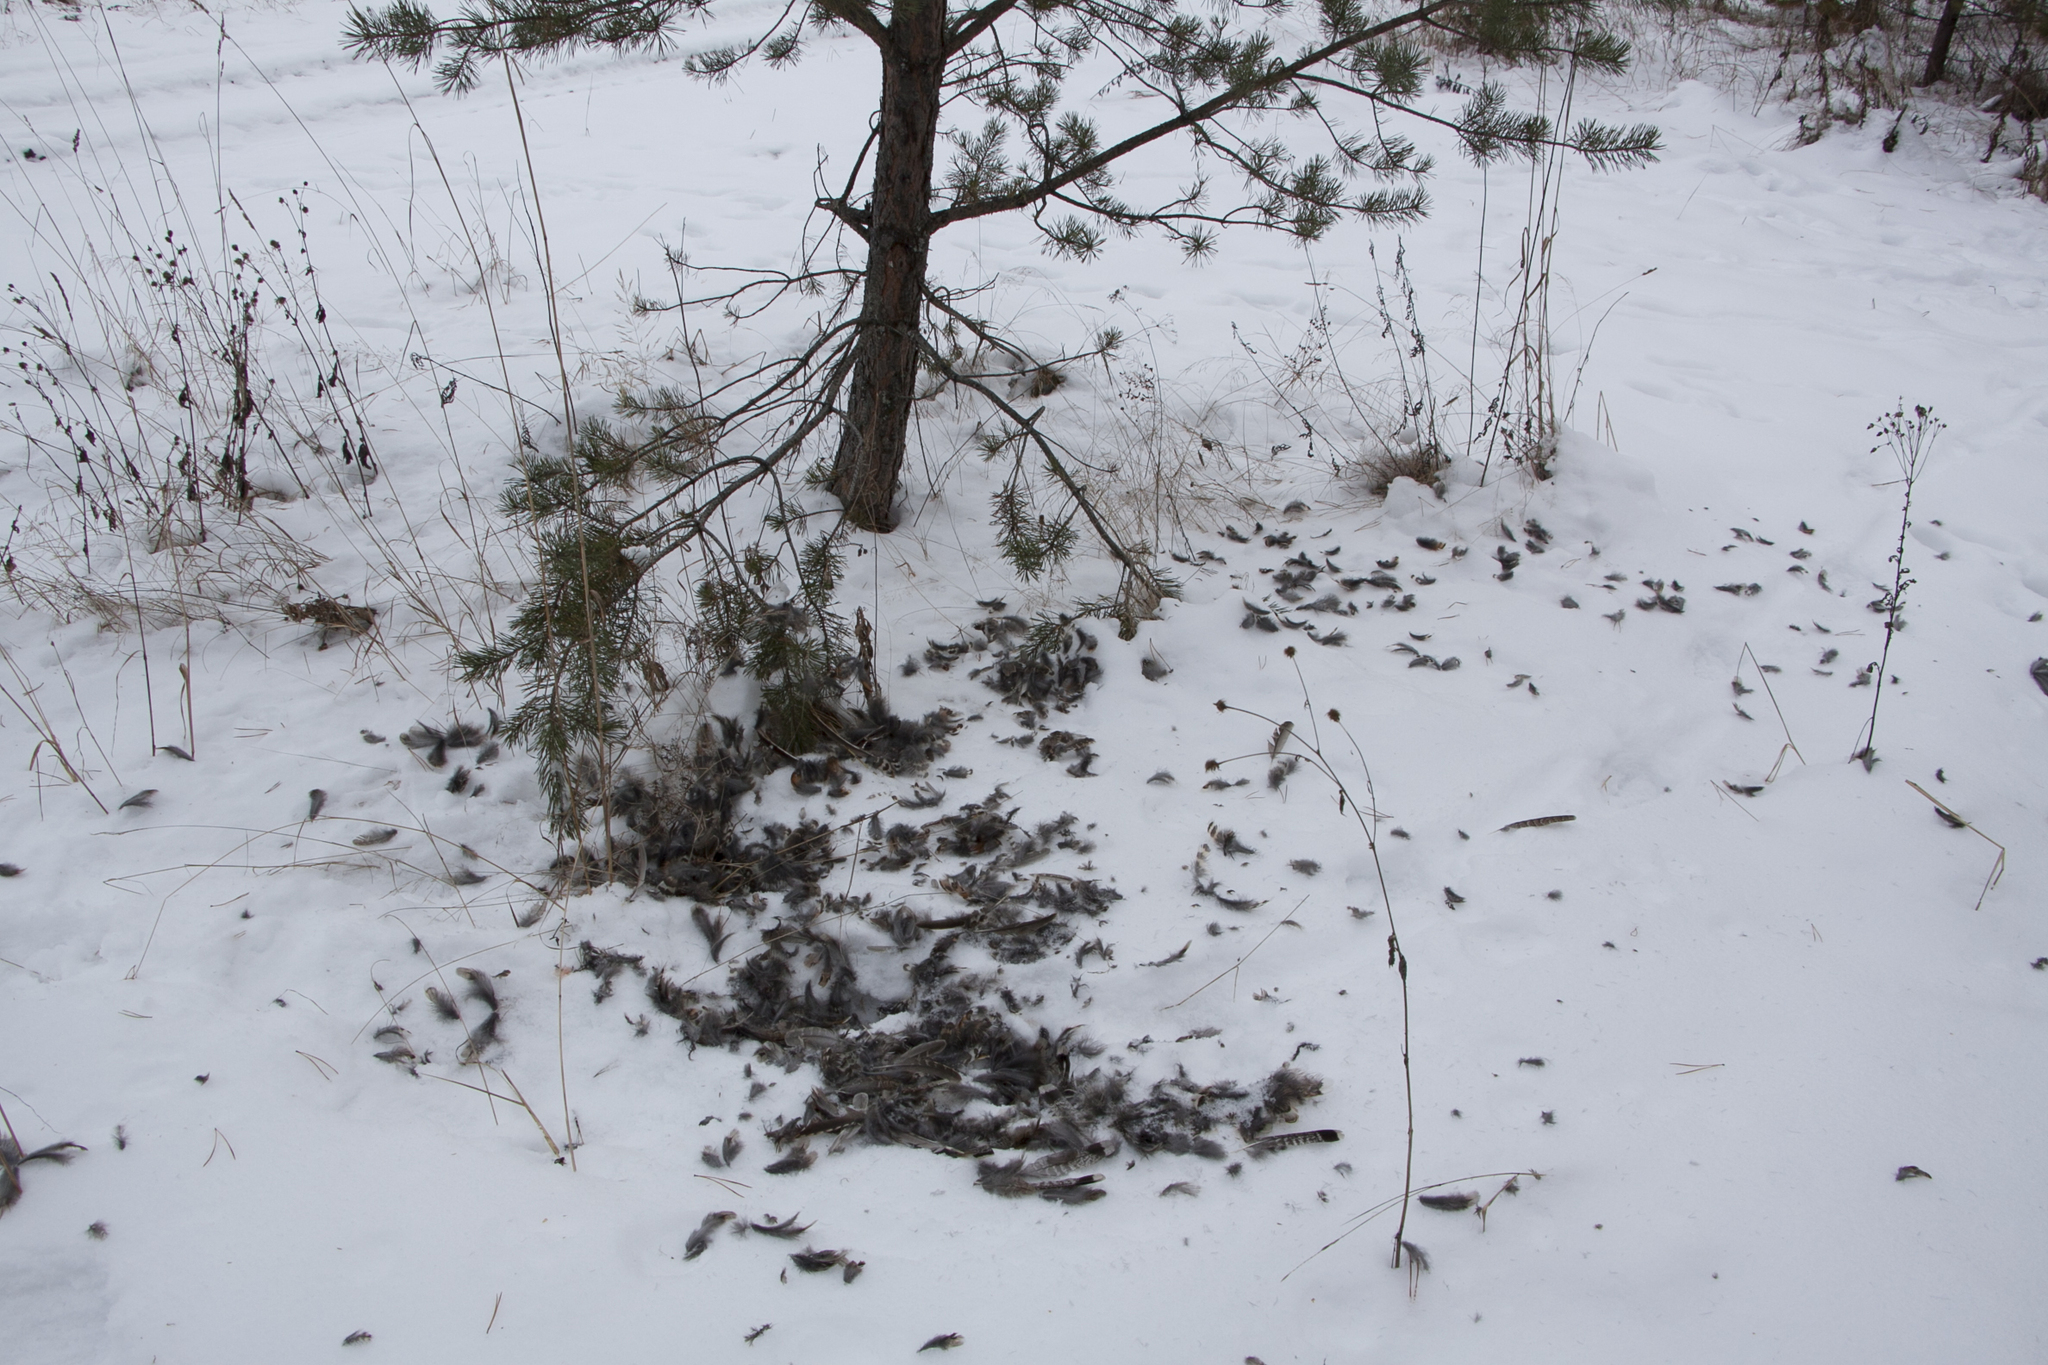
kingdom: Animalia
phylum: Chordata
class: Aves
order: Galliformes
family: Phasianidae
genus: Tetrastes
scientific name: Tetrastes bonasia
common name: Hazel grouse
